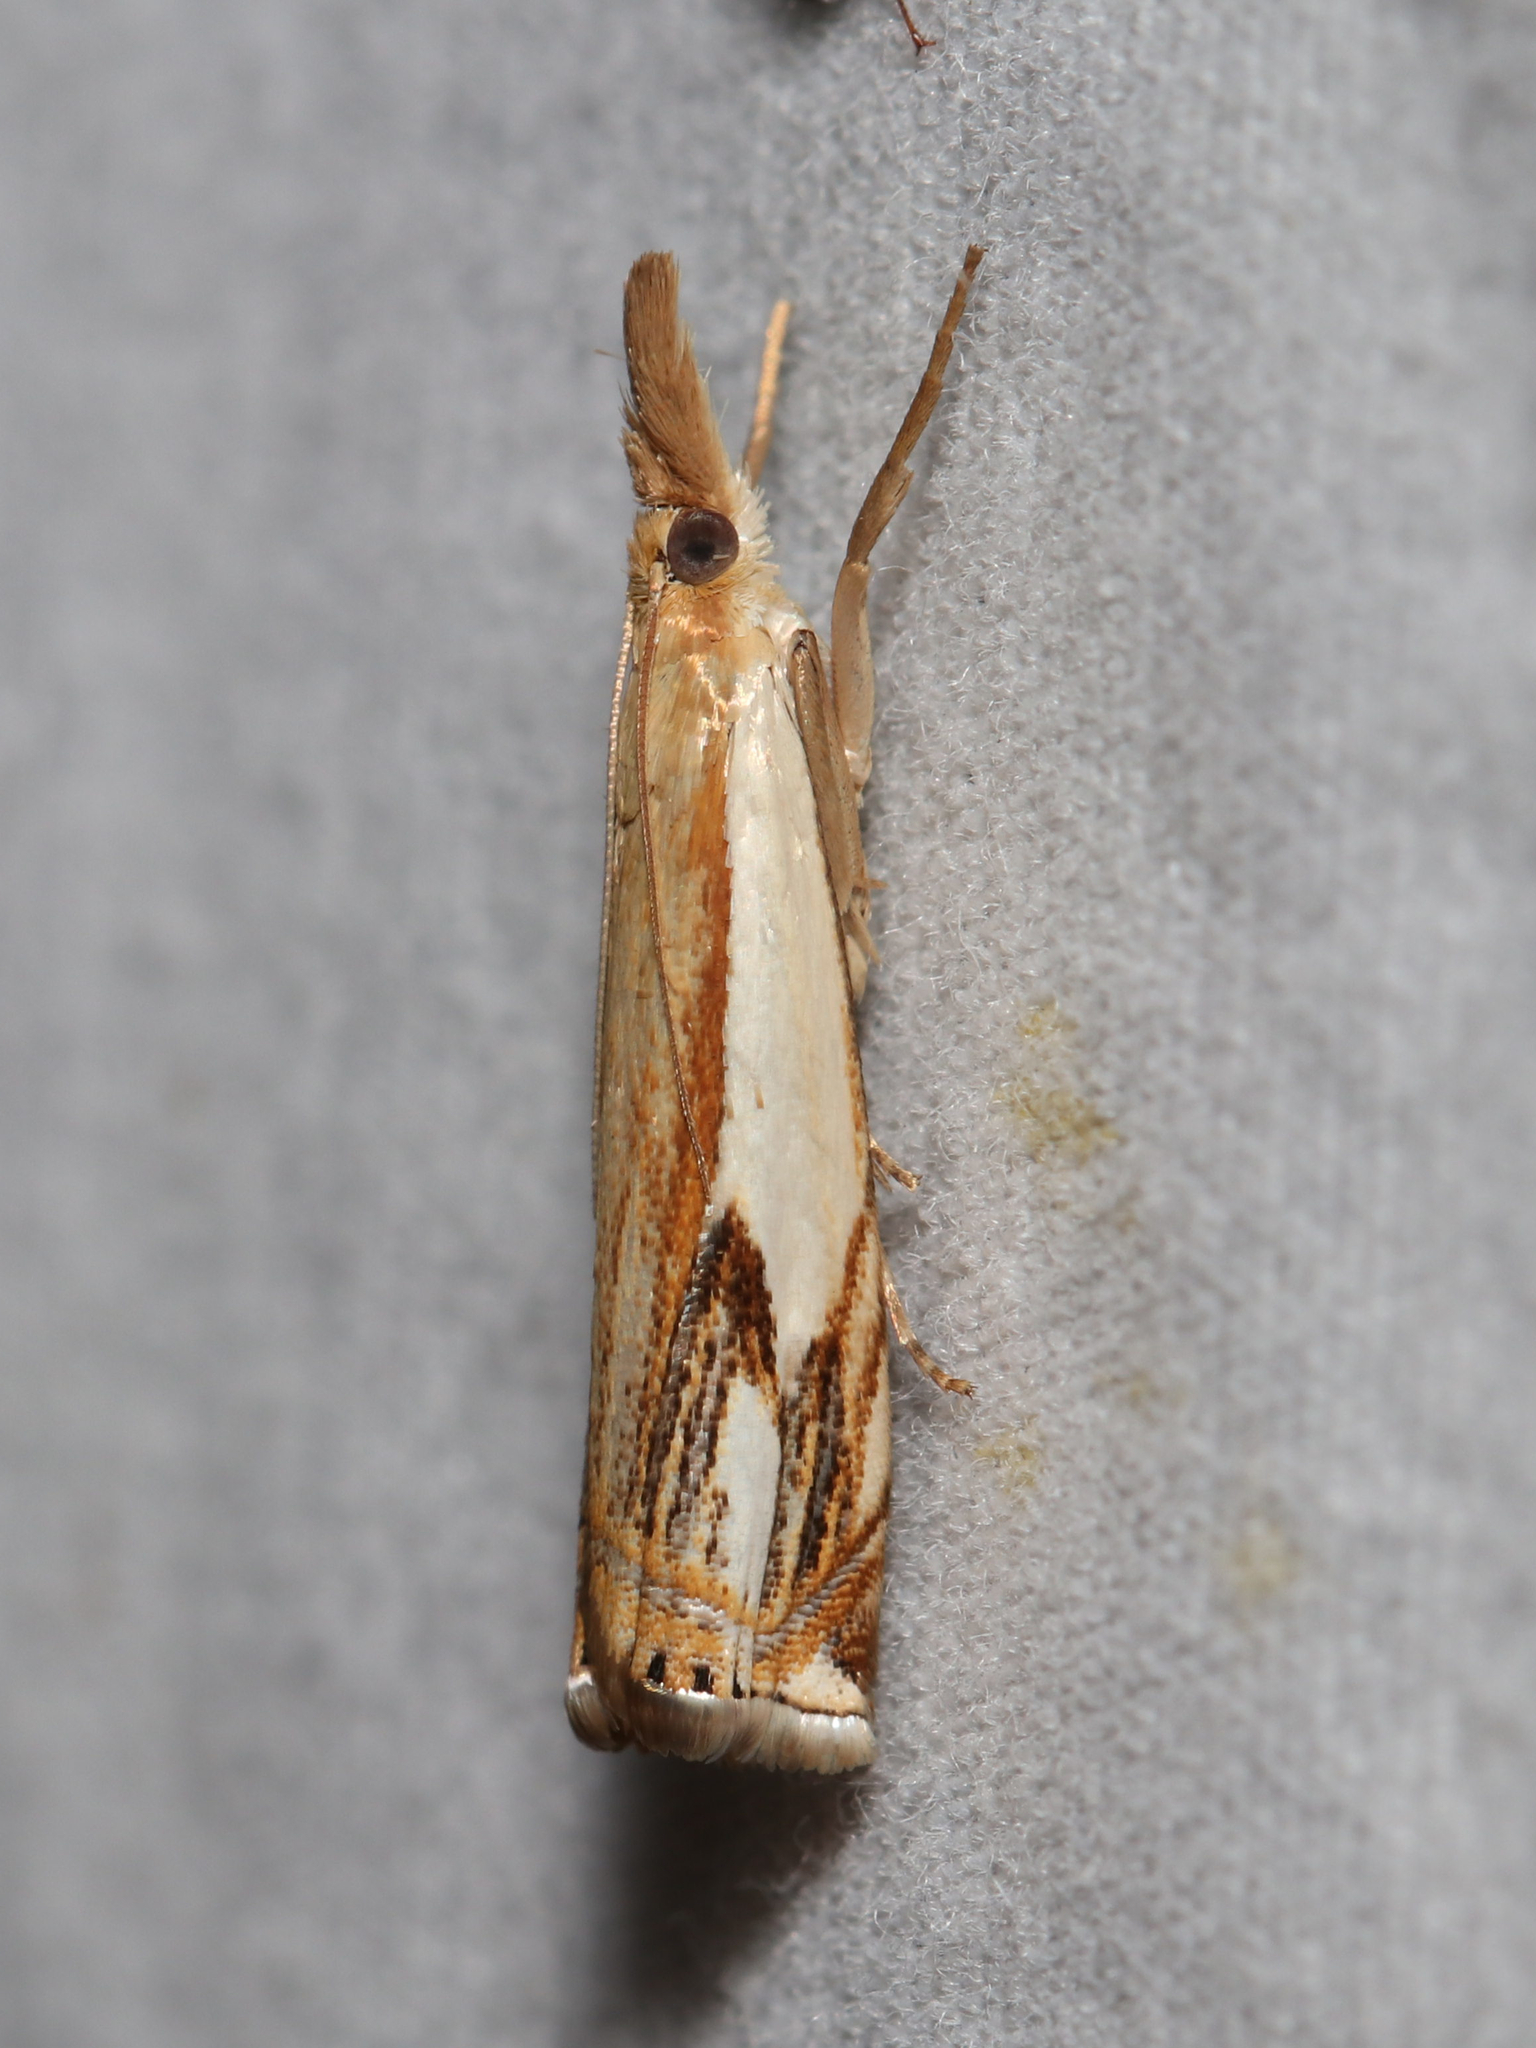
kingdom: Animalia
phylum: Arthropoda
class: Insecta
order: Lepidoptera
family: Crambidae
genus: Crambus
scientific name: Crambus agitatellus
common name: Double-banded grass-veneer
